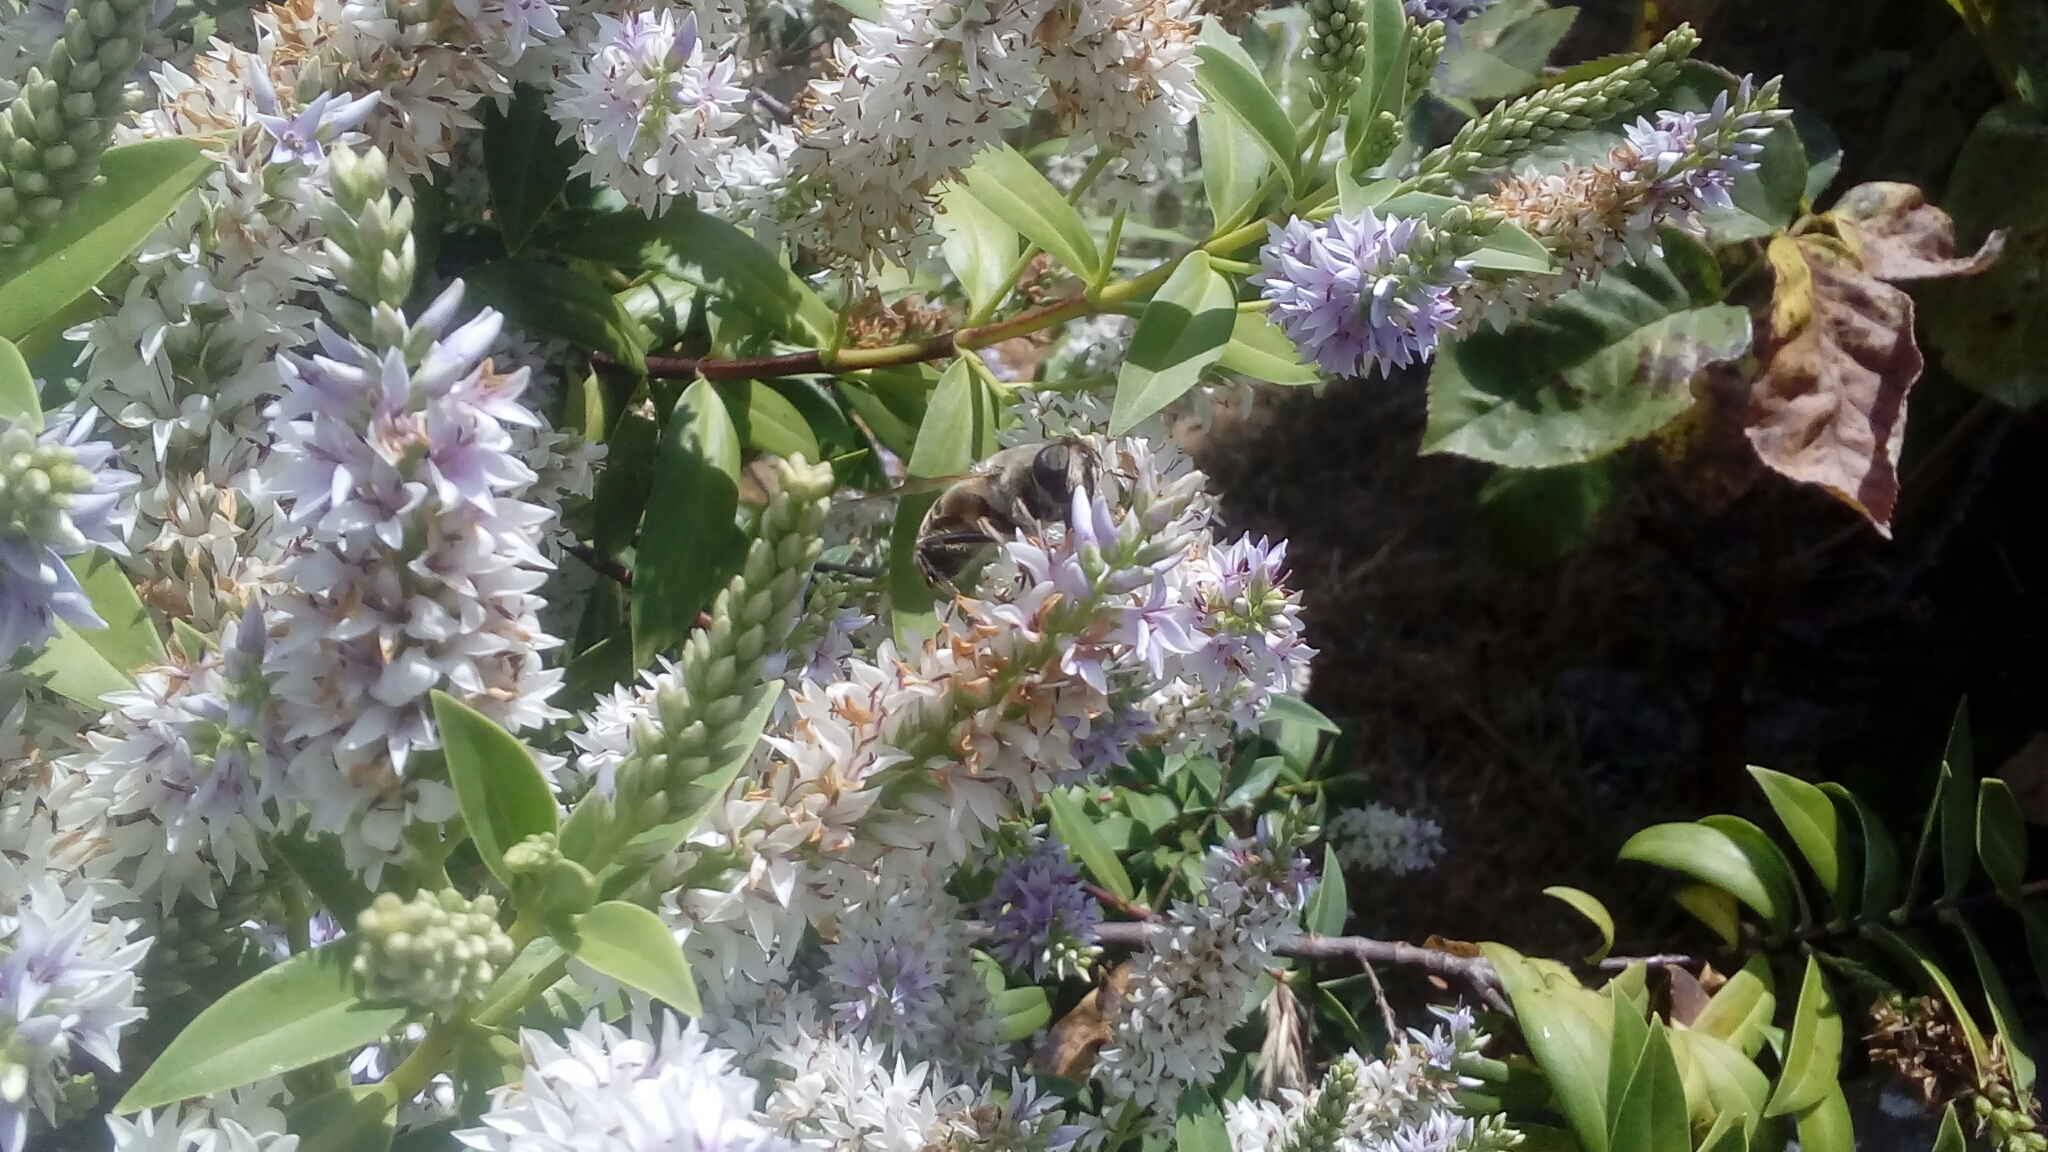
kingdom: Animalia
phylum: Arthropoda
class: Insecta
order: Diptera
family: Syrphidae
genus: Eristalis
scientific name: Eristalis tenax
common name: Drone fly
